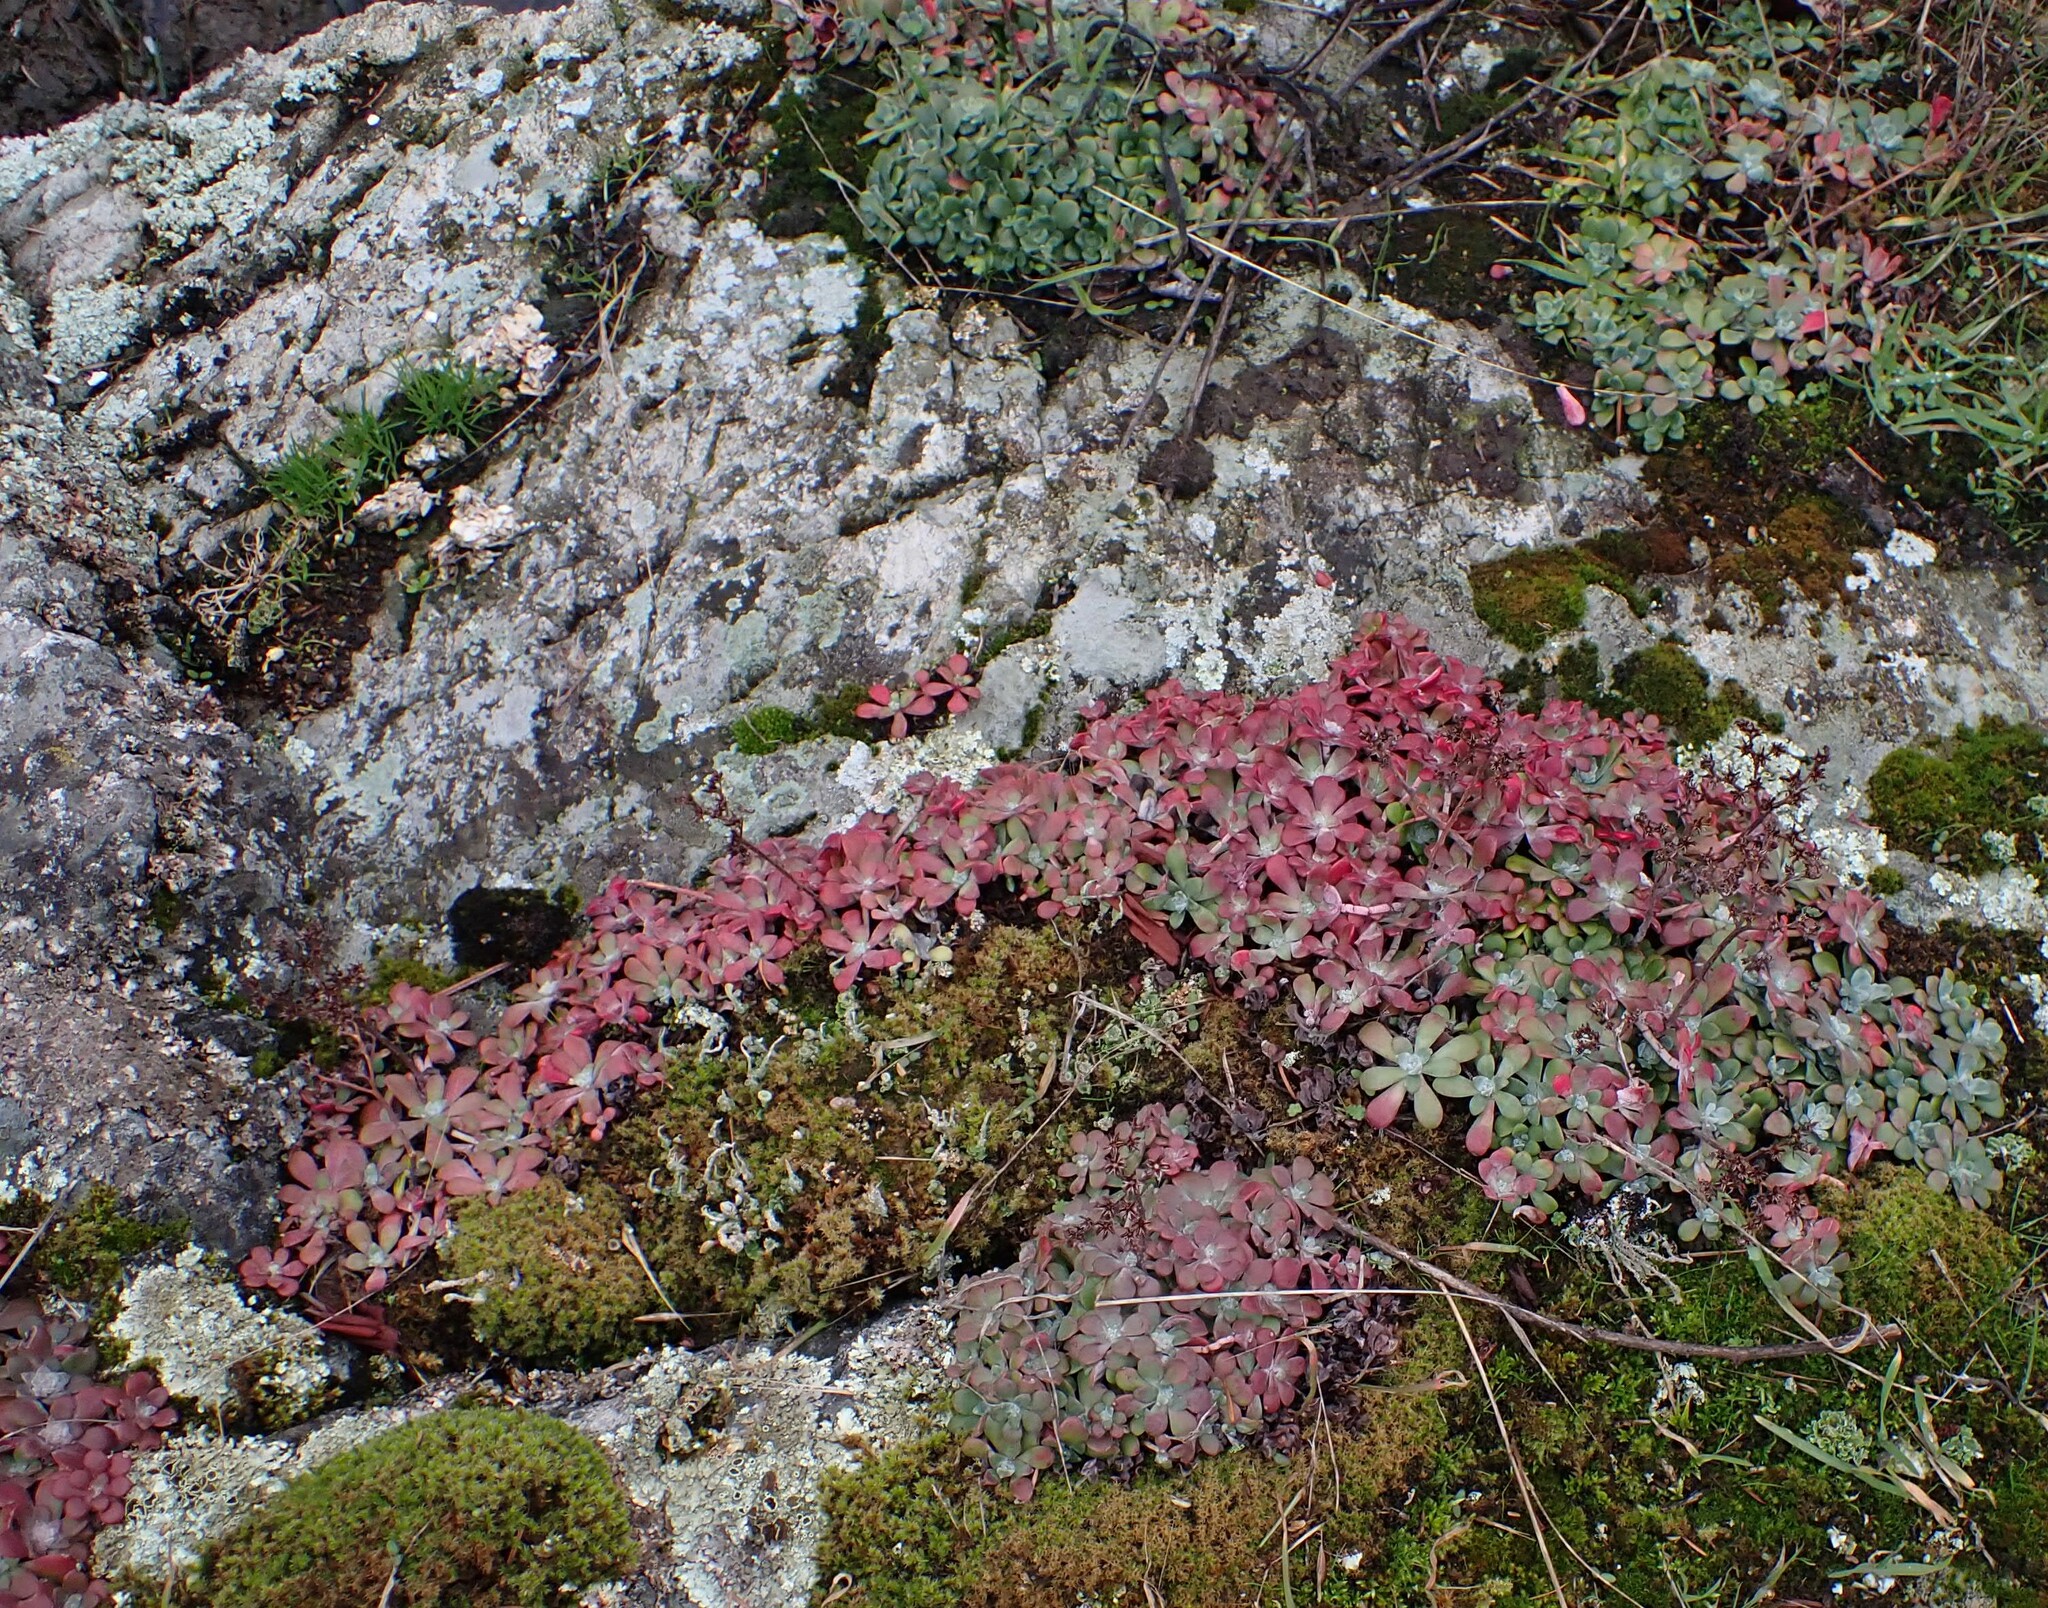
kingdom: Plantae
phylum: Tracheophyta
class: Magnoliopsida
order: Saxifragales
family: Crassulaceae
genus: Sedum
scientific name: Sedum spathulifolium
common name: Colorado stonecrop
